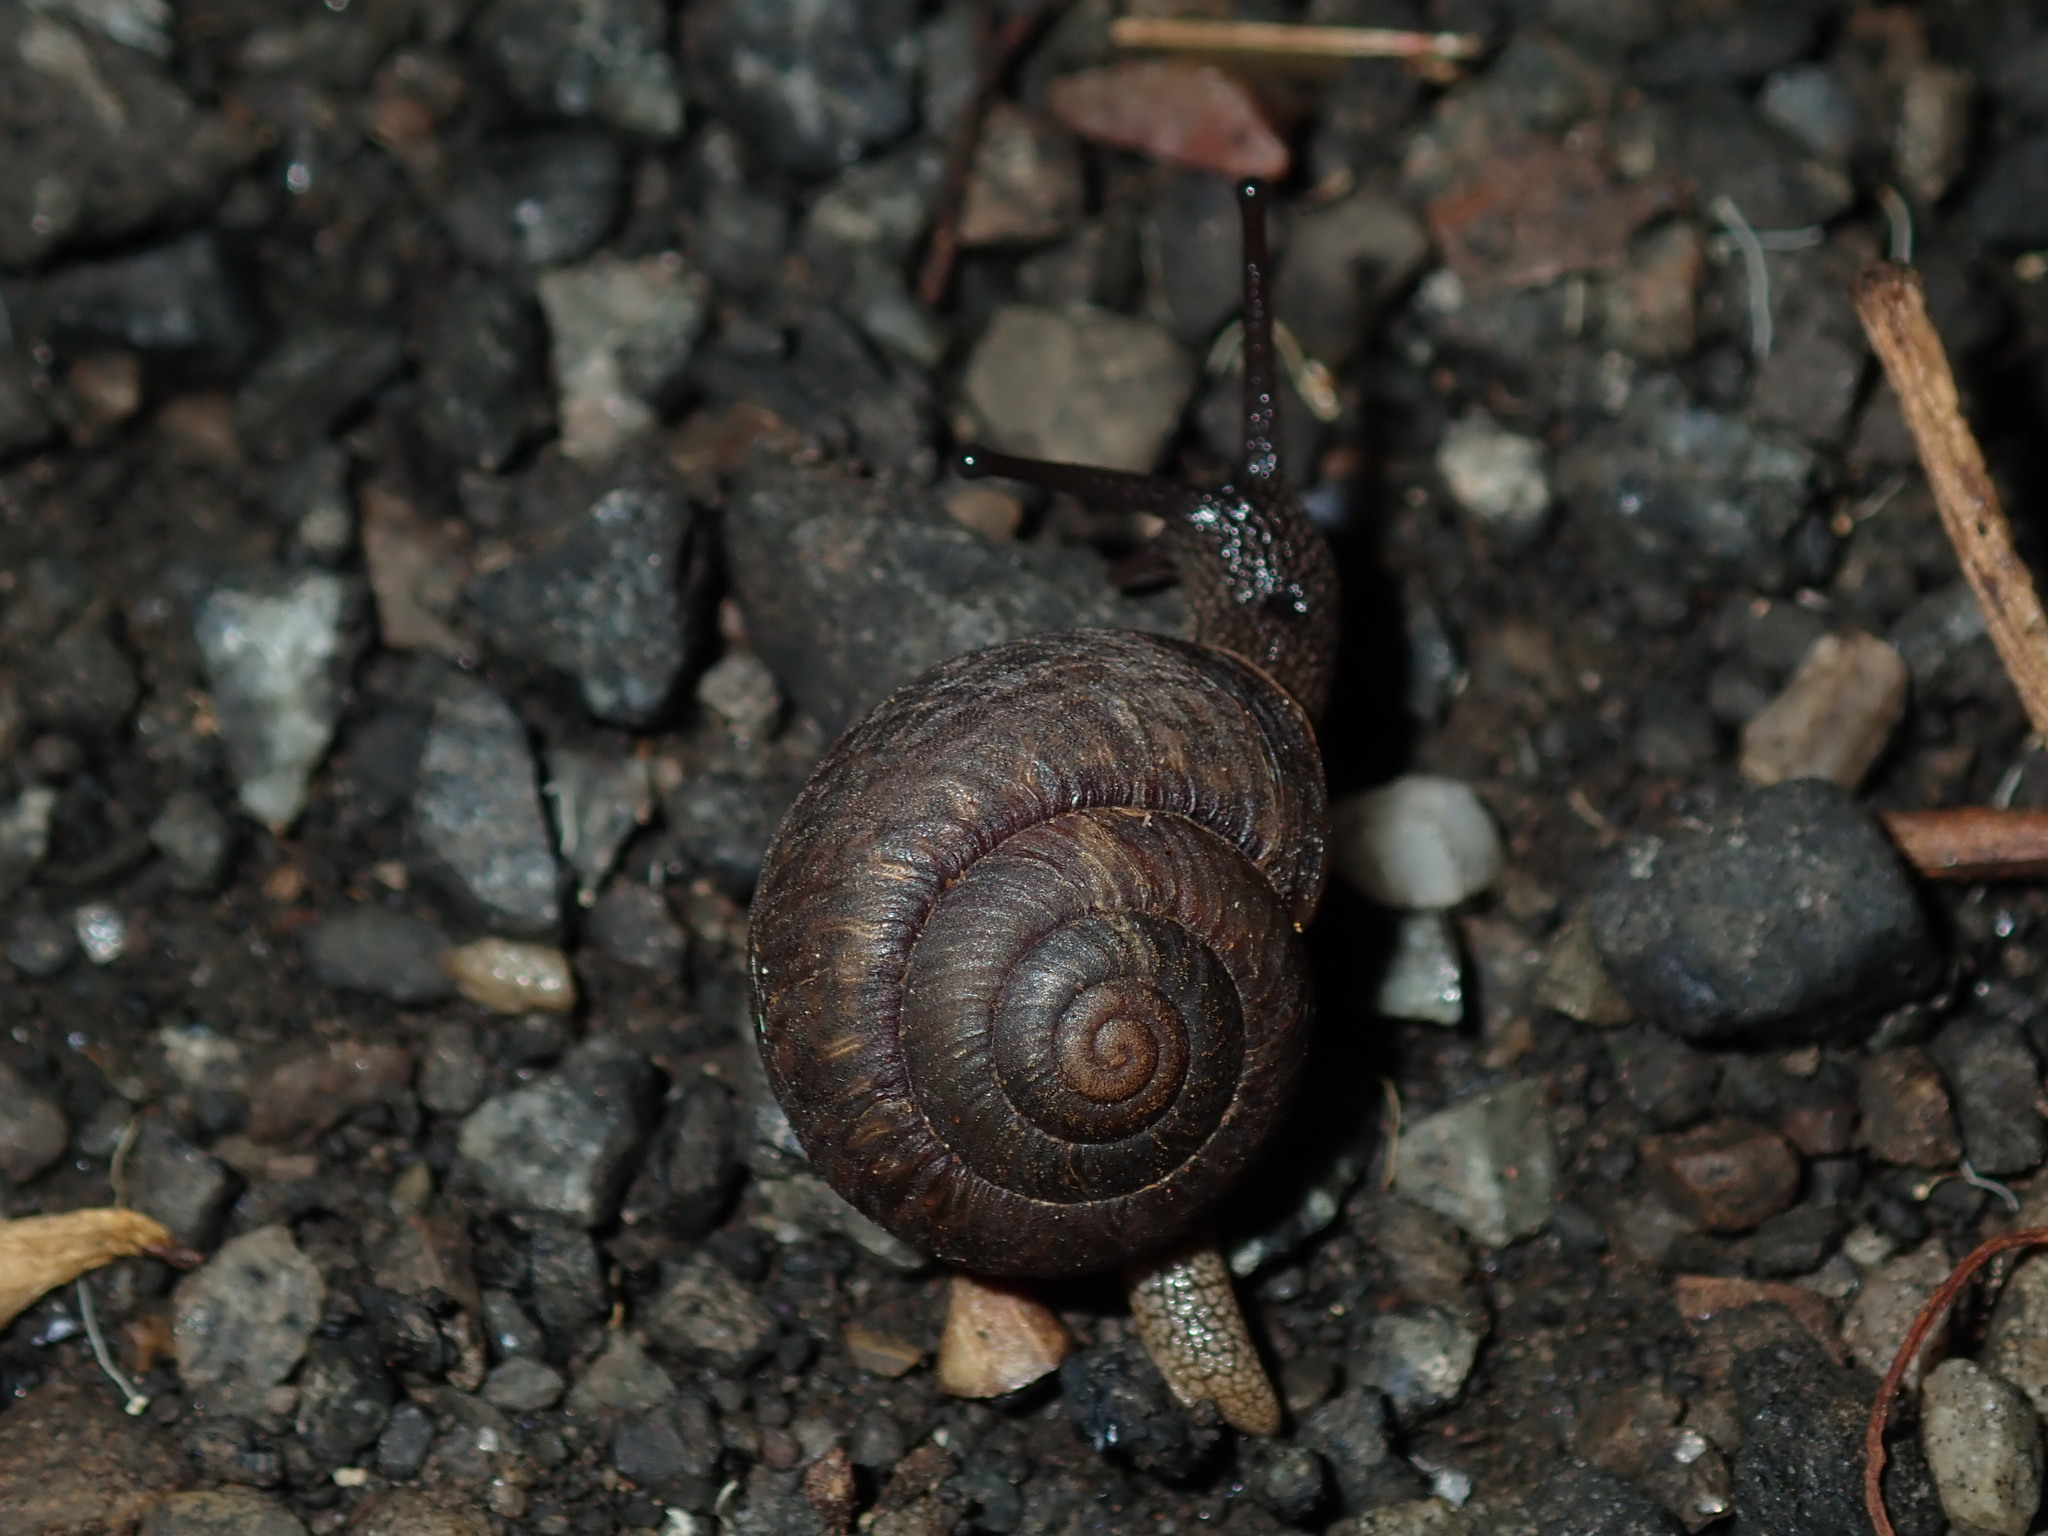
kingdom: Animalia
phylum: Mollusca
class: Gastropoda
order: Stylommatophora
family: Camaenidae
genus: Sauroconcha
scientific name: Sauroconcha sheai
